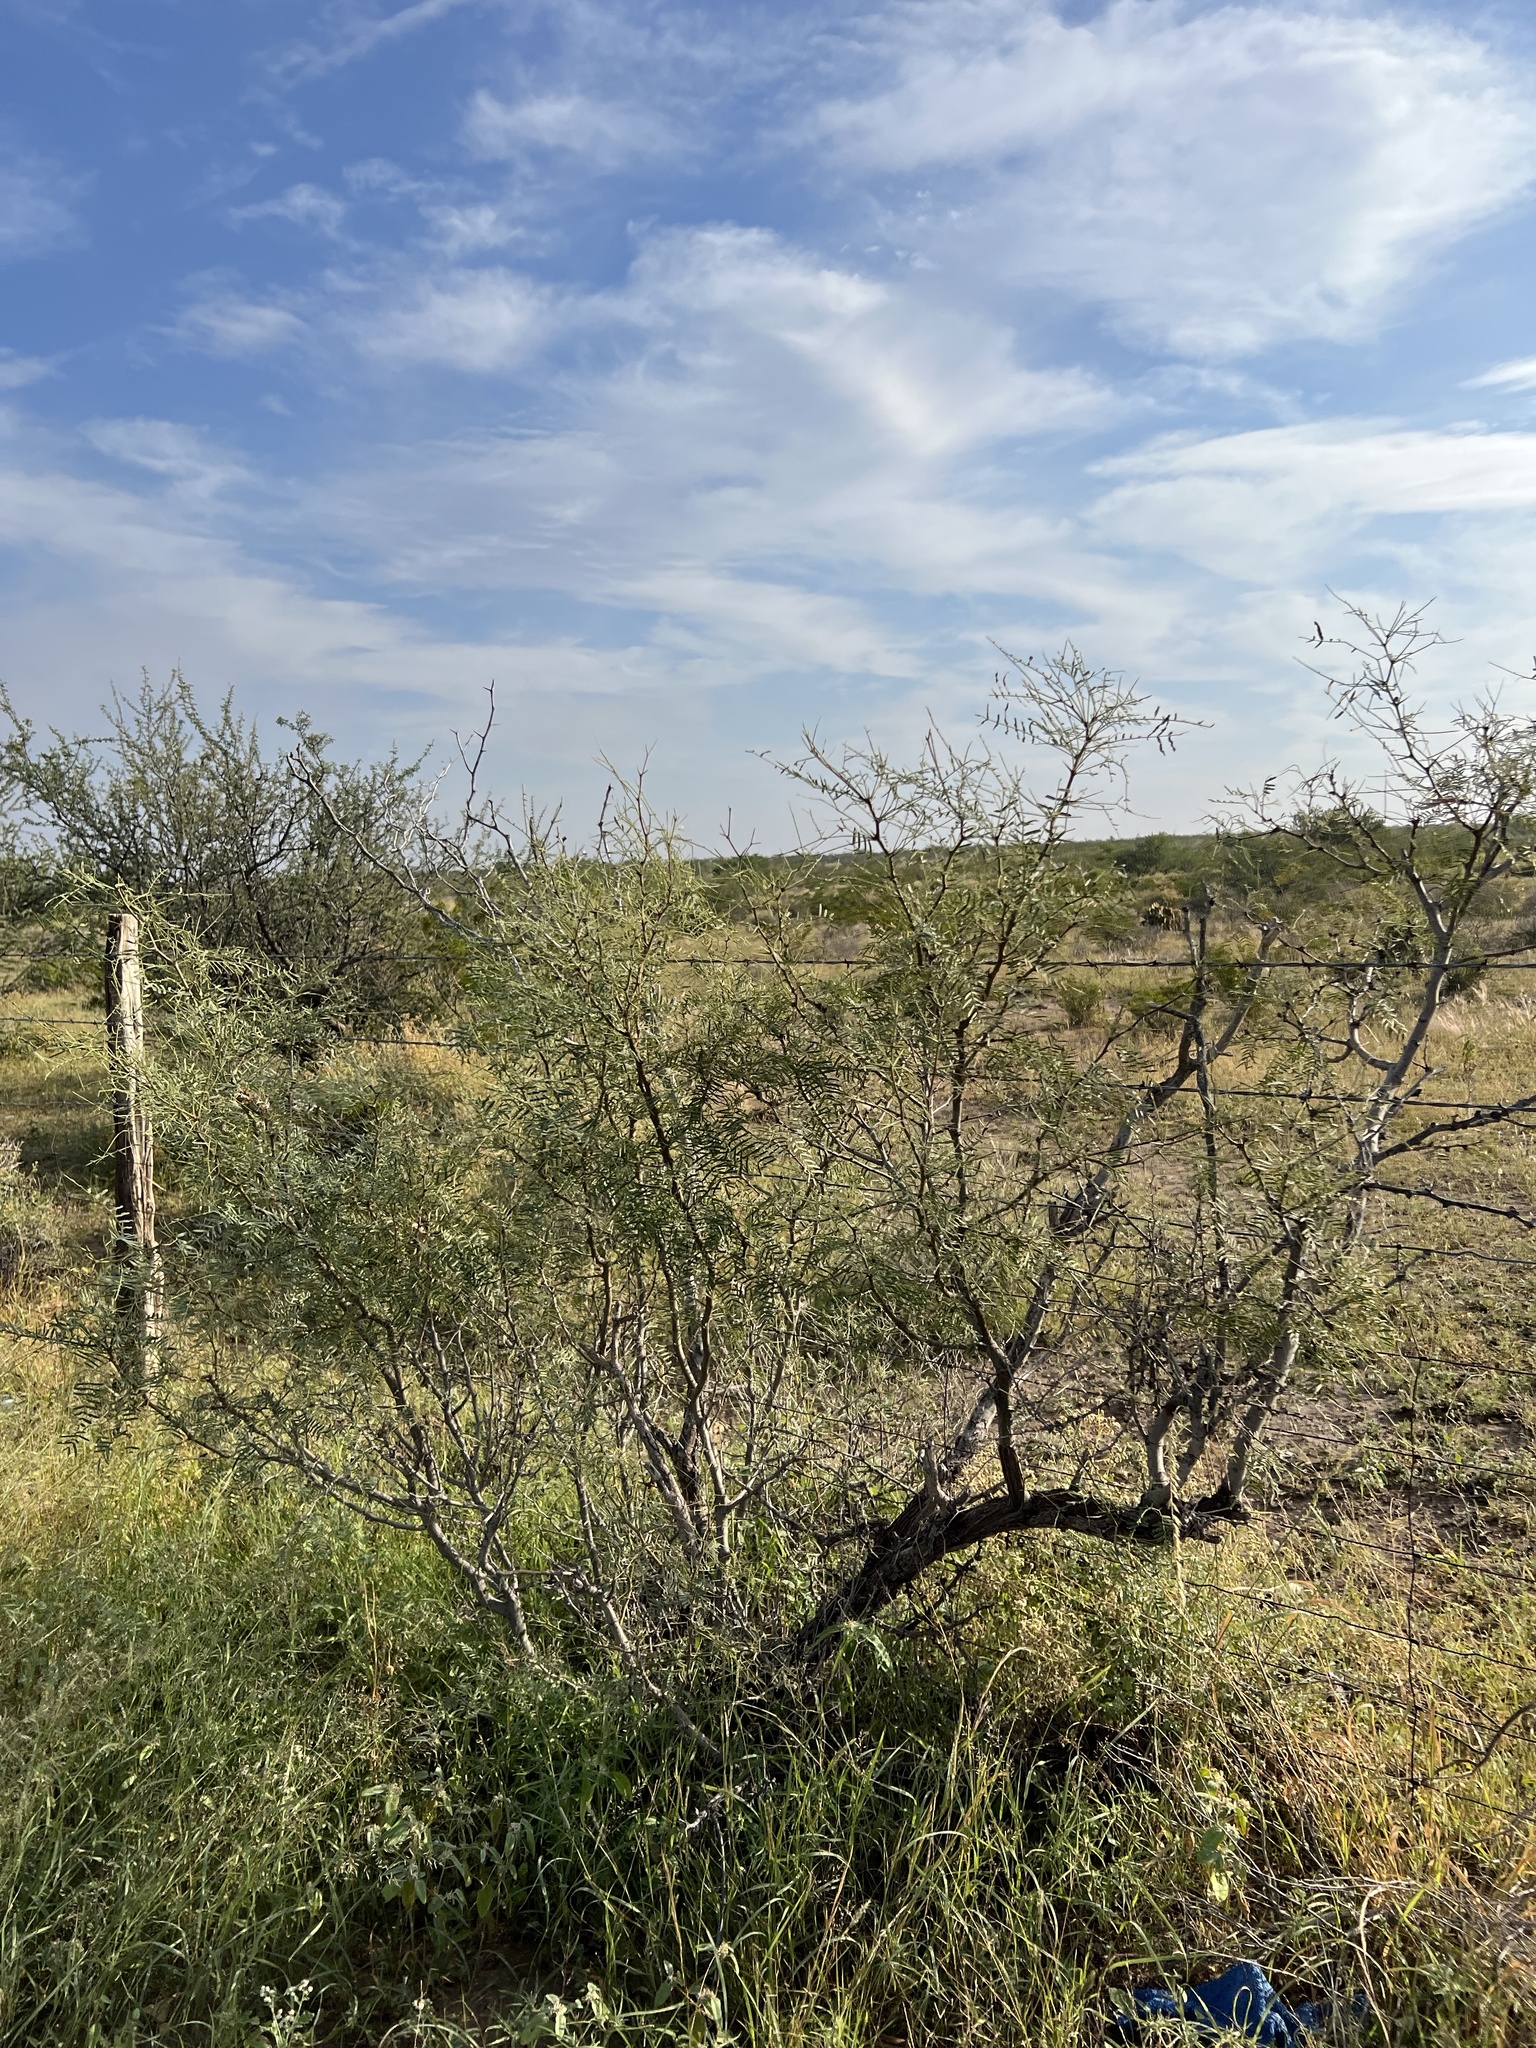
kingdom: Plantae
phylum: Tracheophyta
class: Magnoliopsida
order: Fabales
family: Fabaceae
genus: Prosopis
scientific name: Prosopis glandulosa
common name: Honey mesquite
